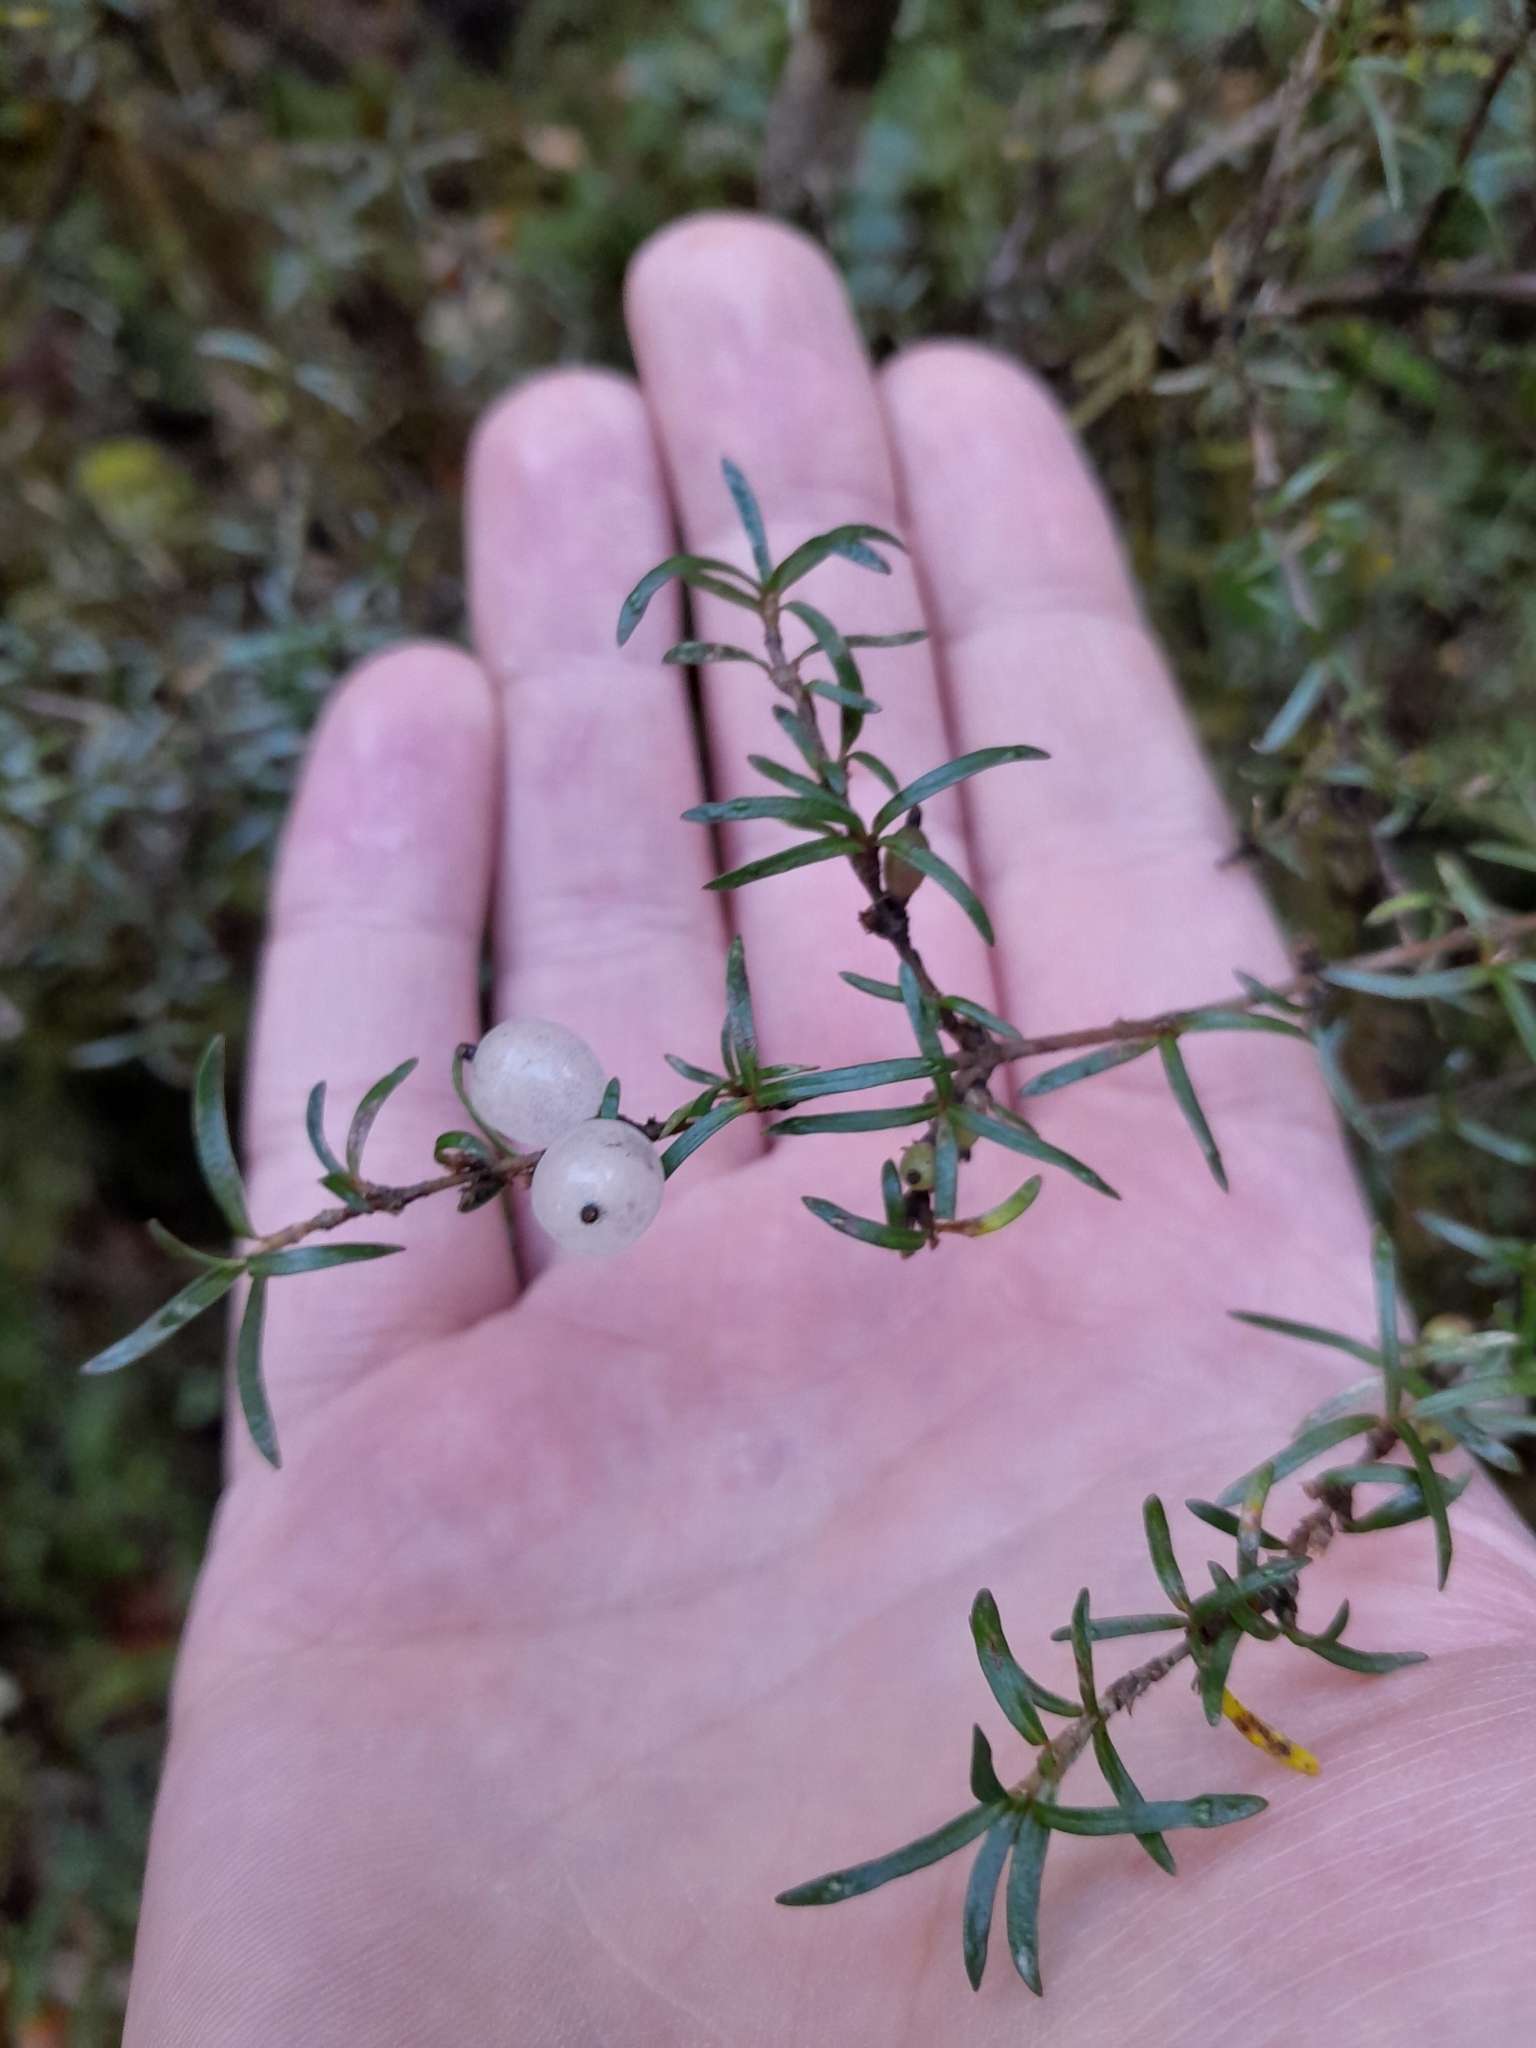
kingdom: Plantae
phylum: Tracheophyta
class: Magnoliopsida
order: Gentianales
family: Rubiaceae
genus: Coprosma
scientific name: Coprosma rugosa
